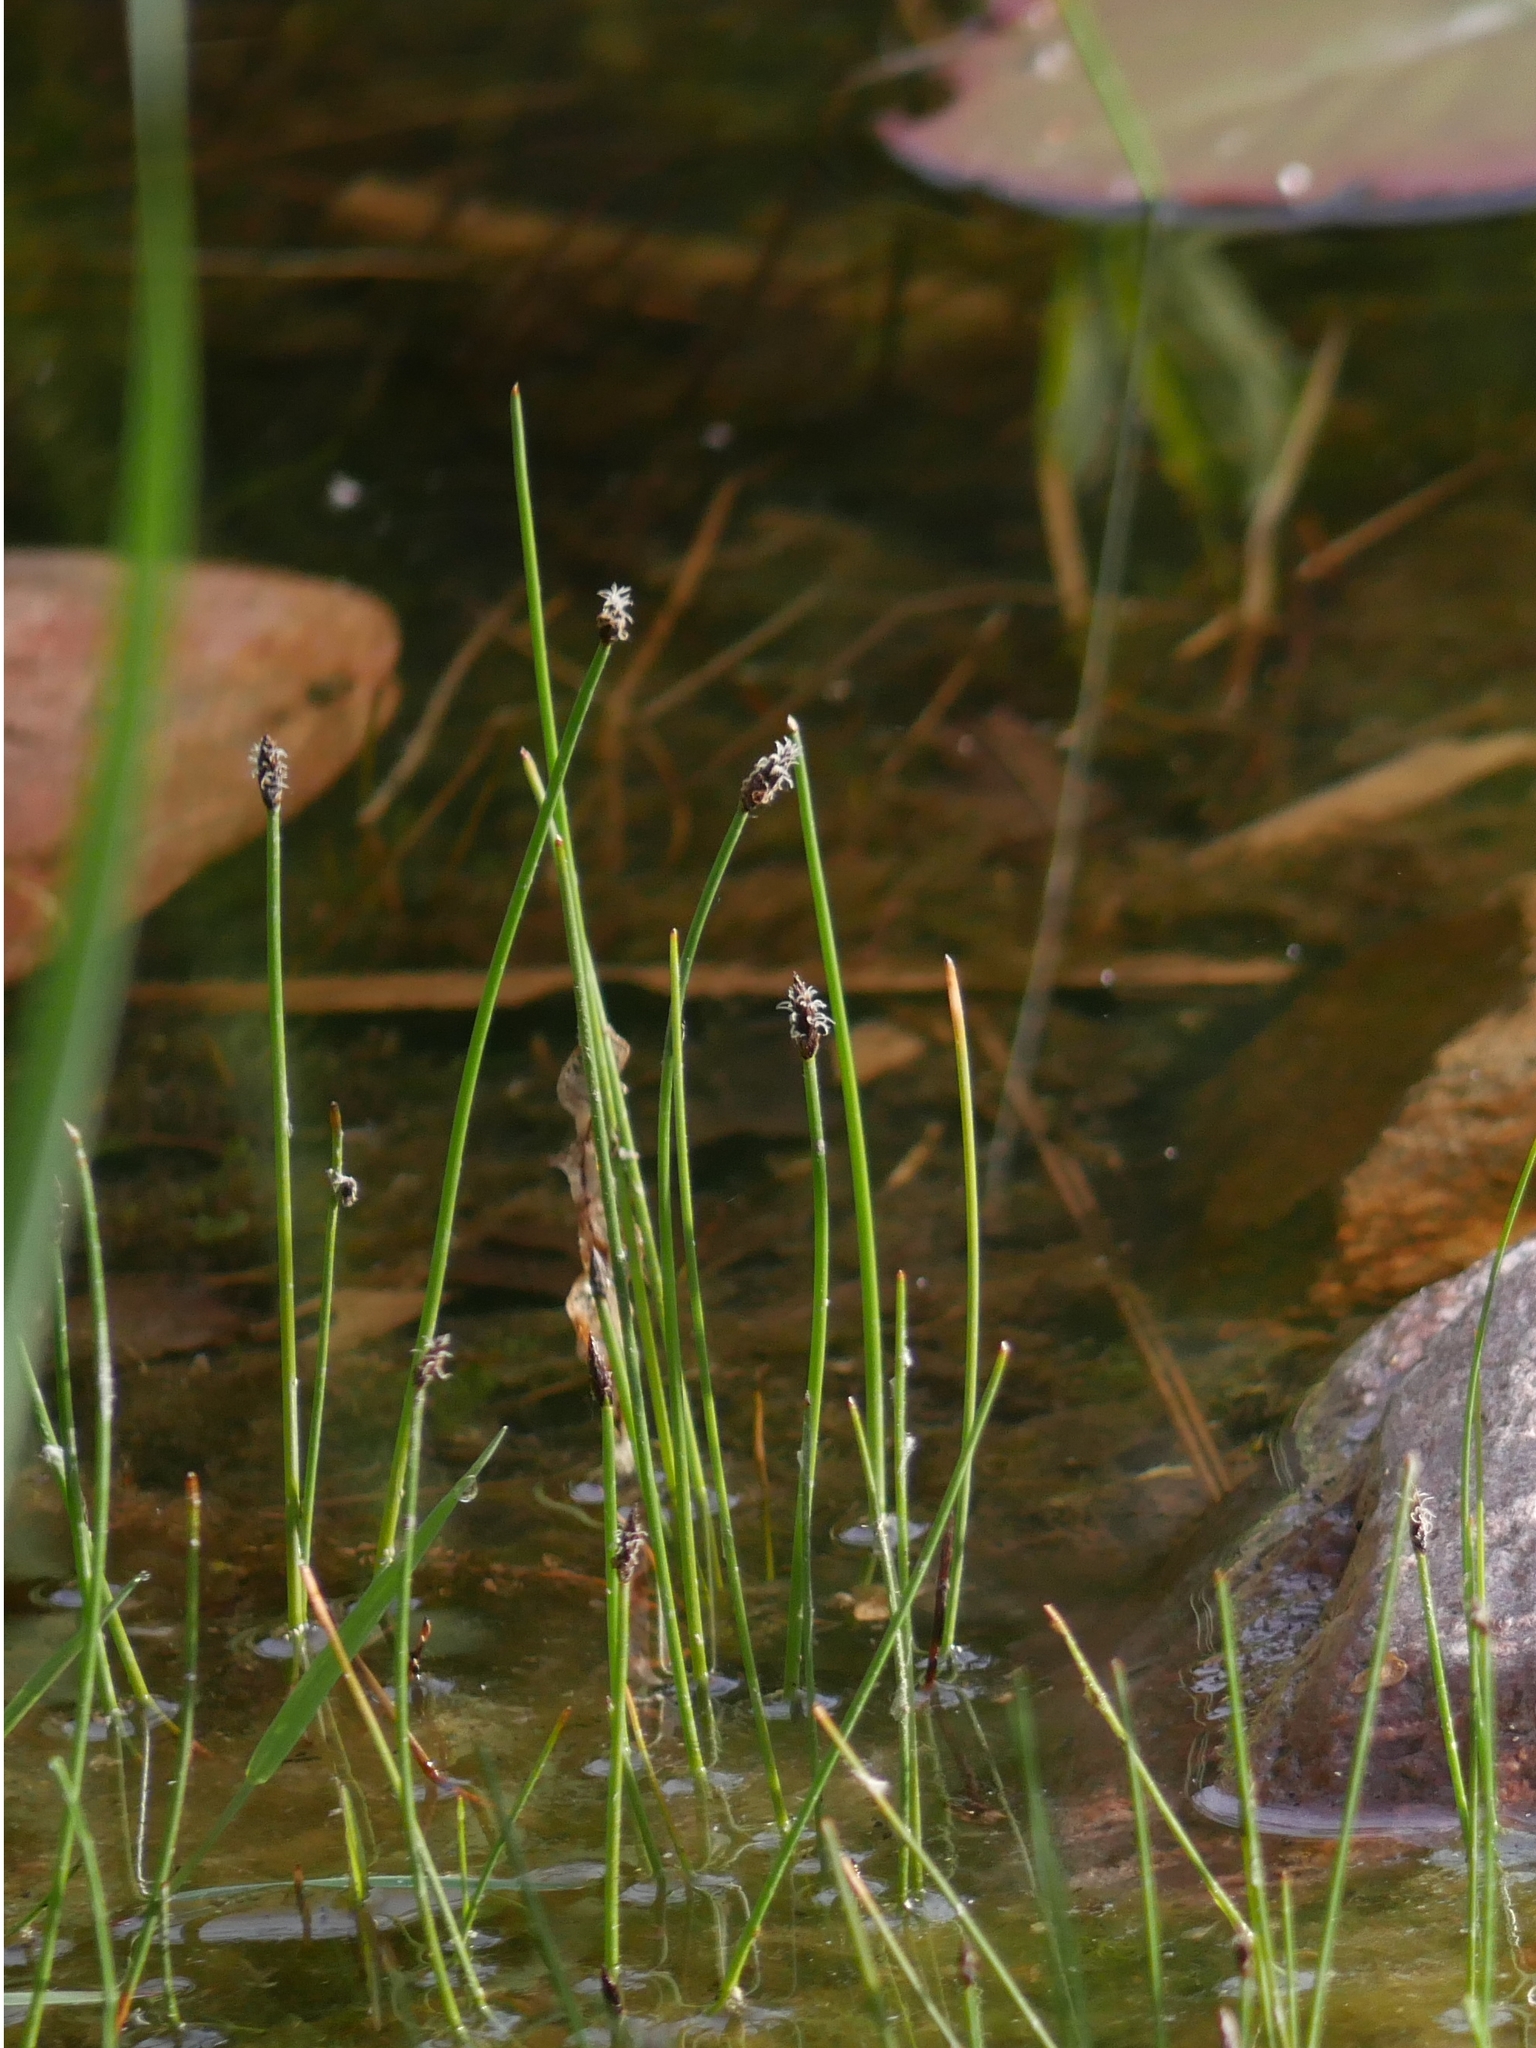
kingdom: Plantae
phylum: Tracheophyta
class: Liliopsida
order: Poales
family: Cyperaceae
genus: Eleocharis
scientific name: Eleocharis palustris
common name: Common spike-rush
